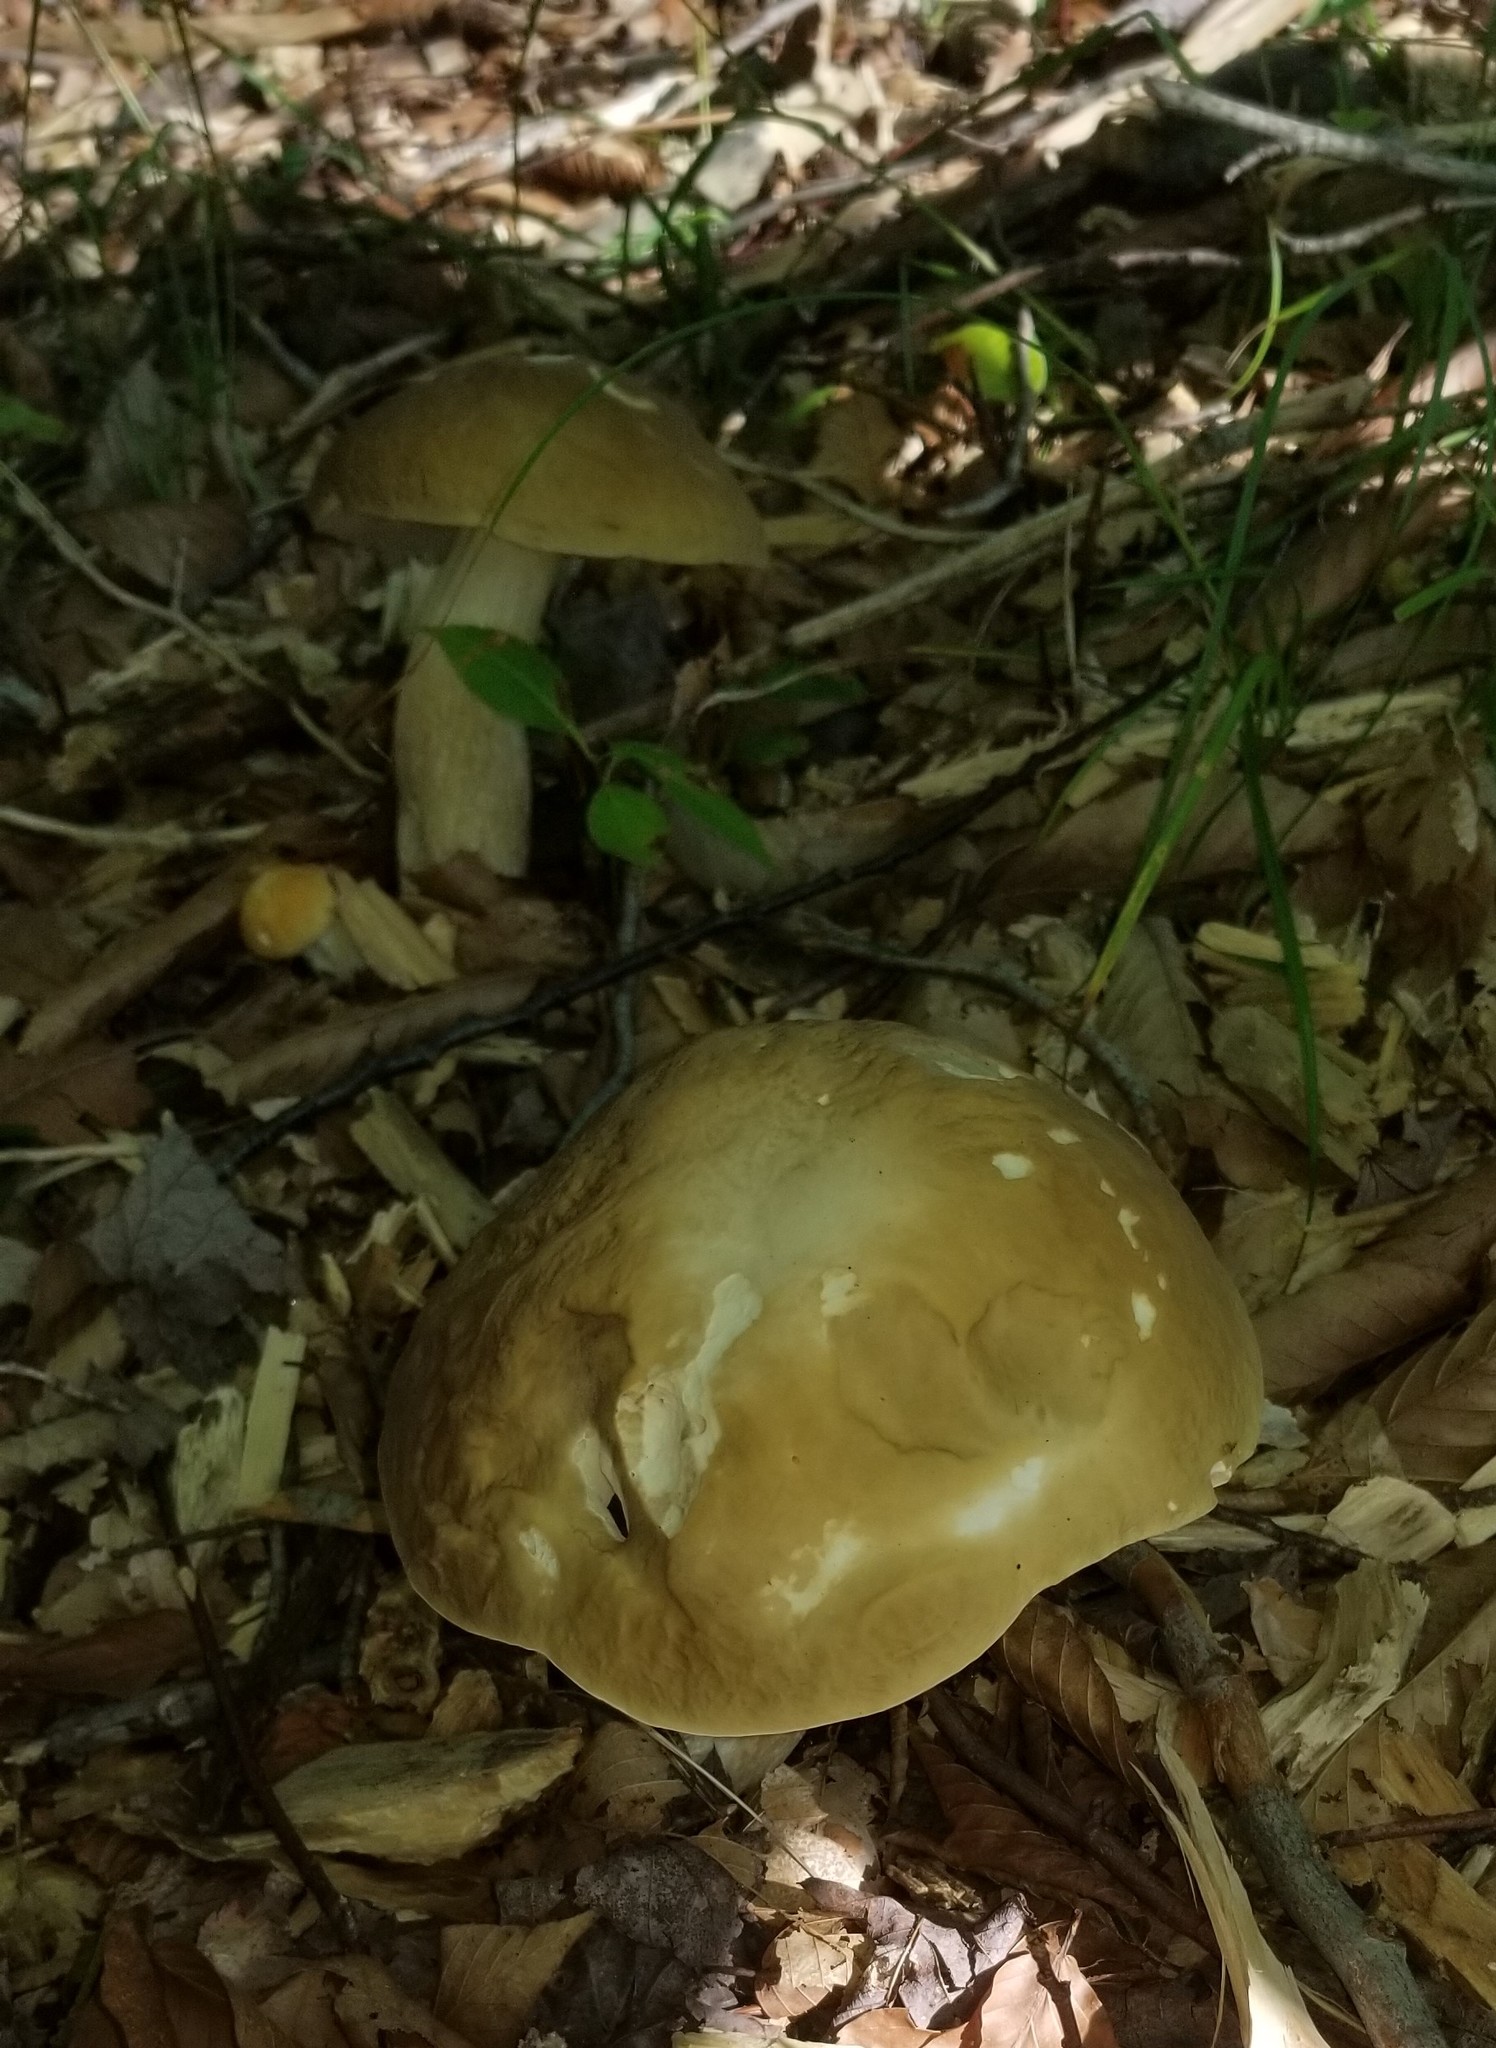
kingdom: Fungi
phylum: Basidiomycota
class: Agaricomycetes
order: Boletales
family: Boletaceae
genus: Boletus
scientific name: Boletus nobilis
